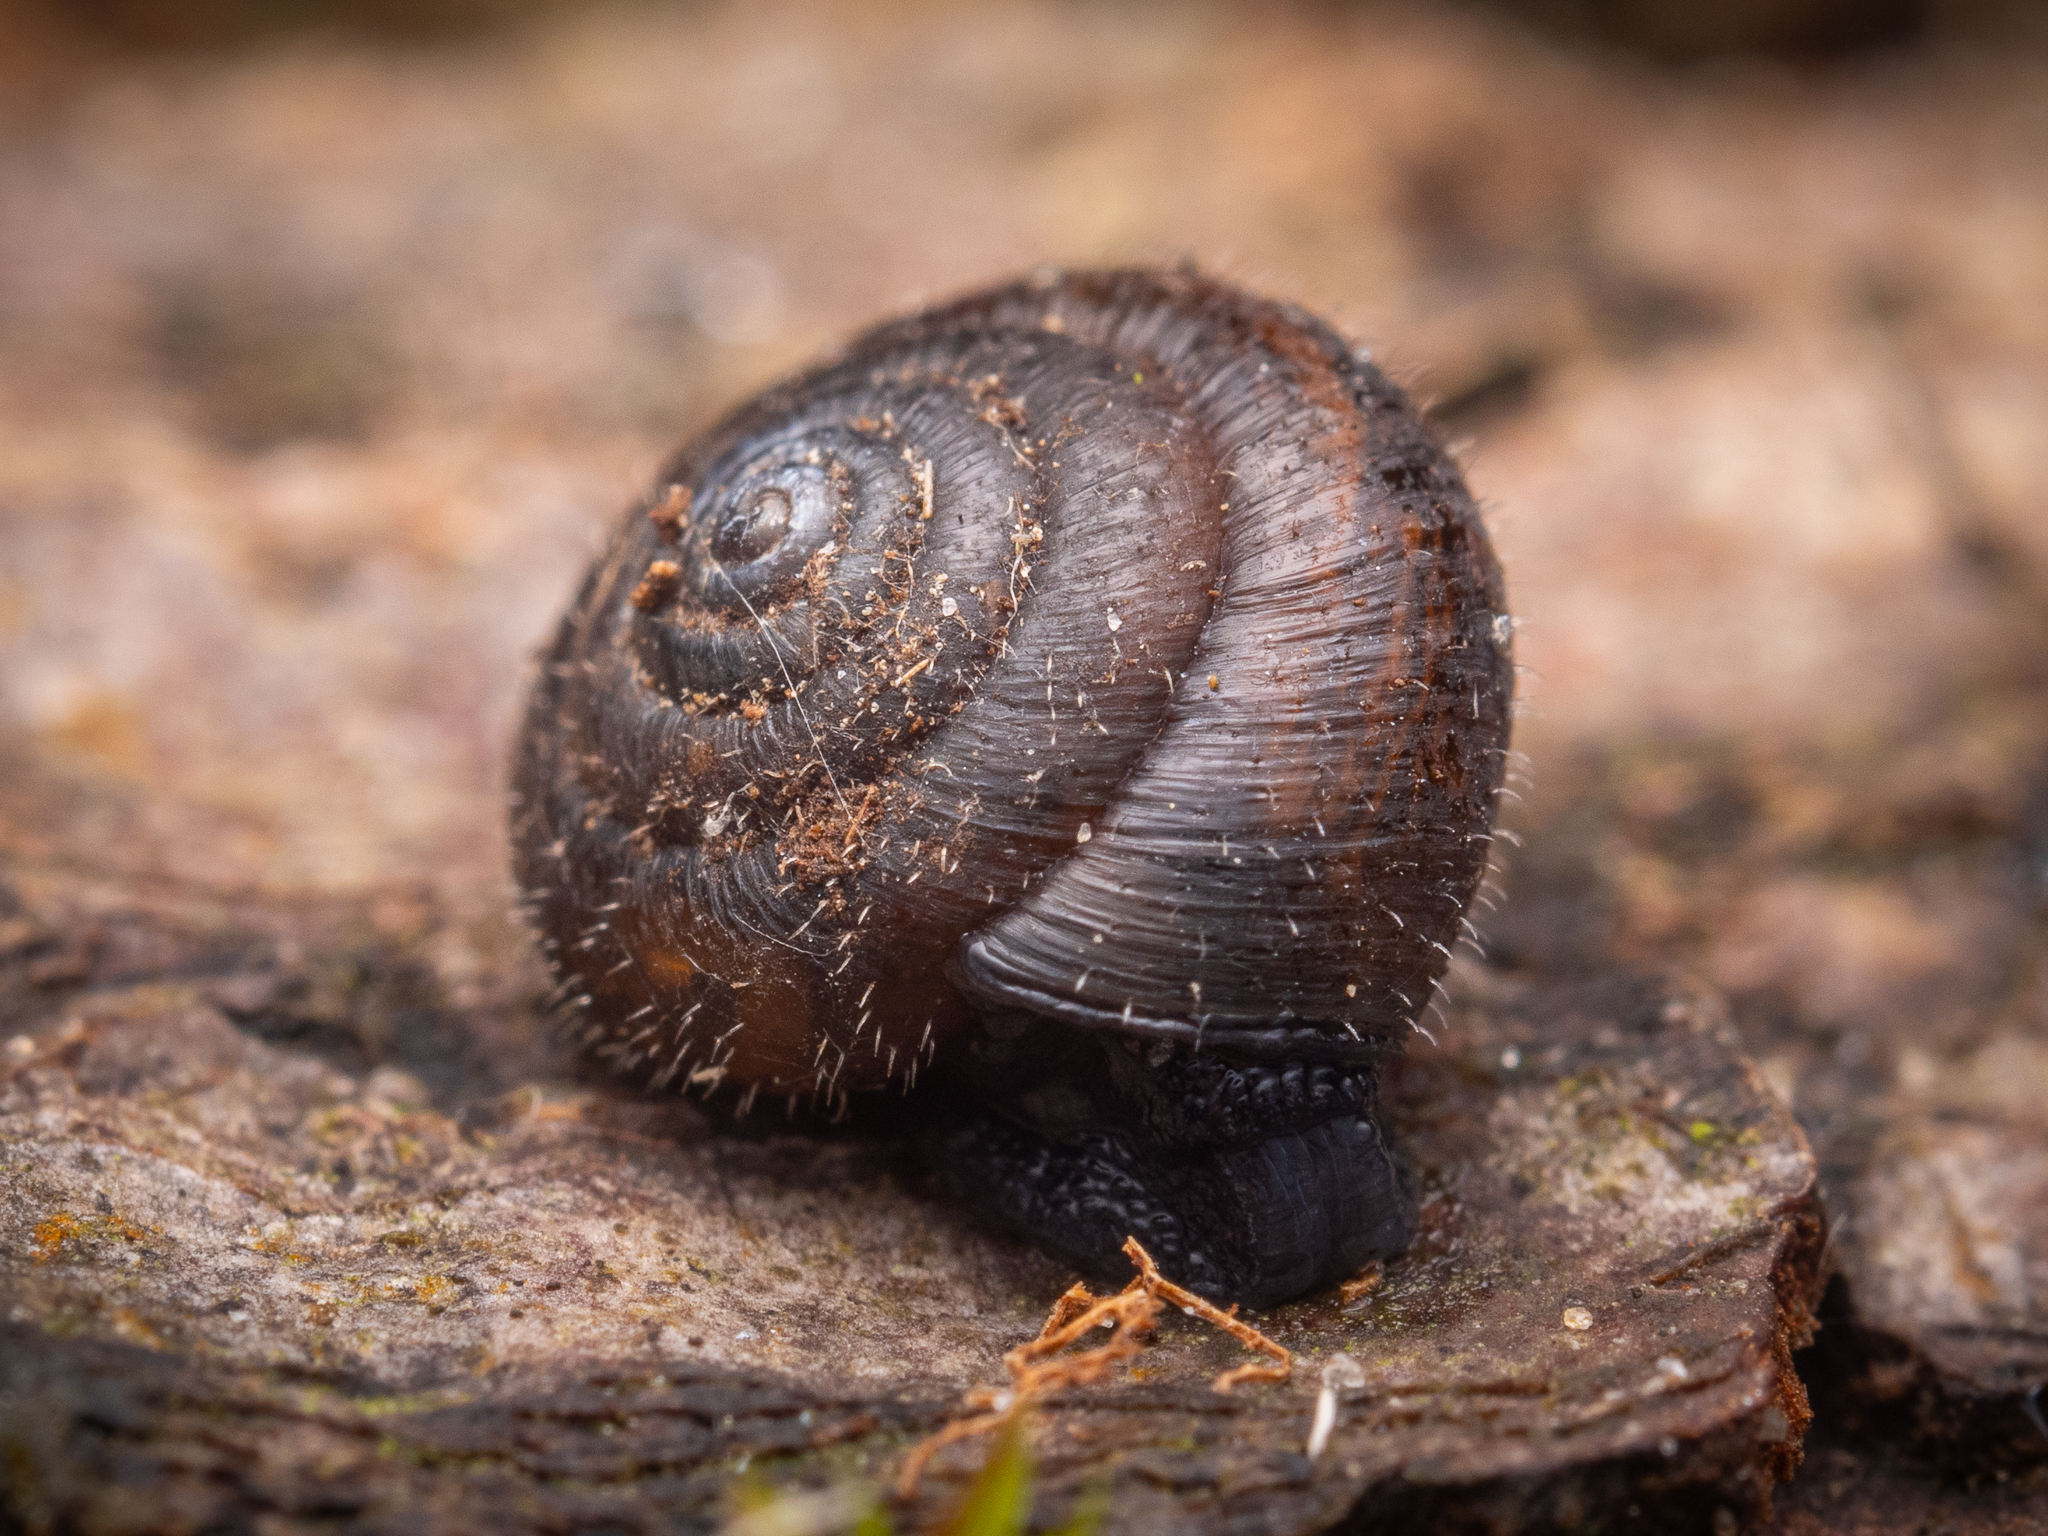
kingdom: Animalia
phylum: Mollusca
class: Gastropoda
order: Stylommatophora
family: Hygromiidae
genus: Trochulus
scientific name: Trochulus hispidus
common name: Hairy snail
